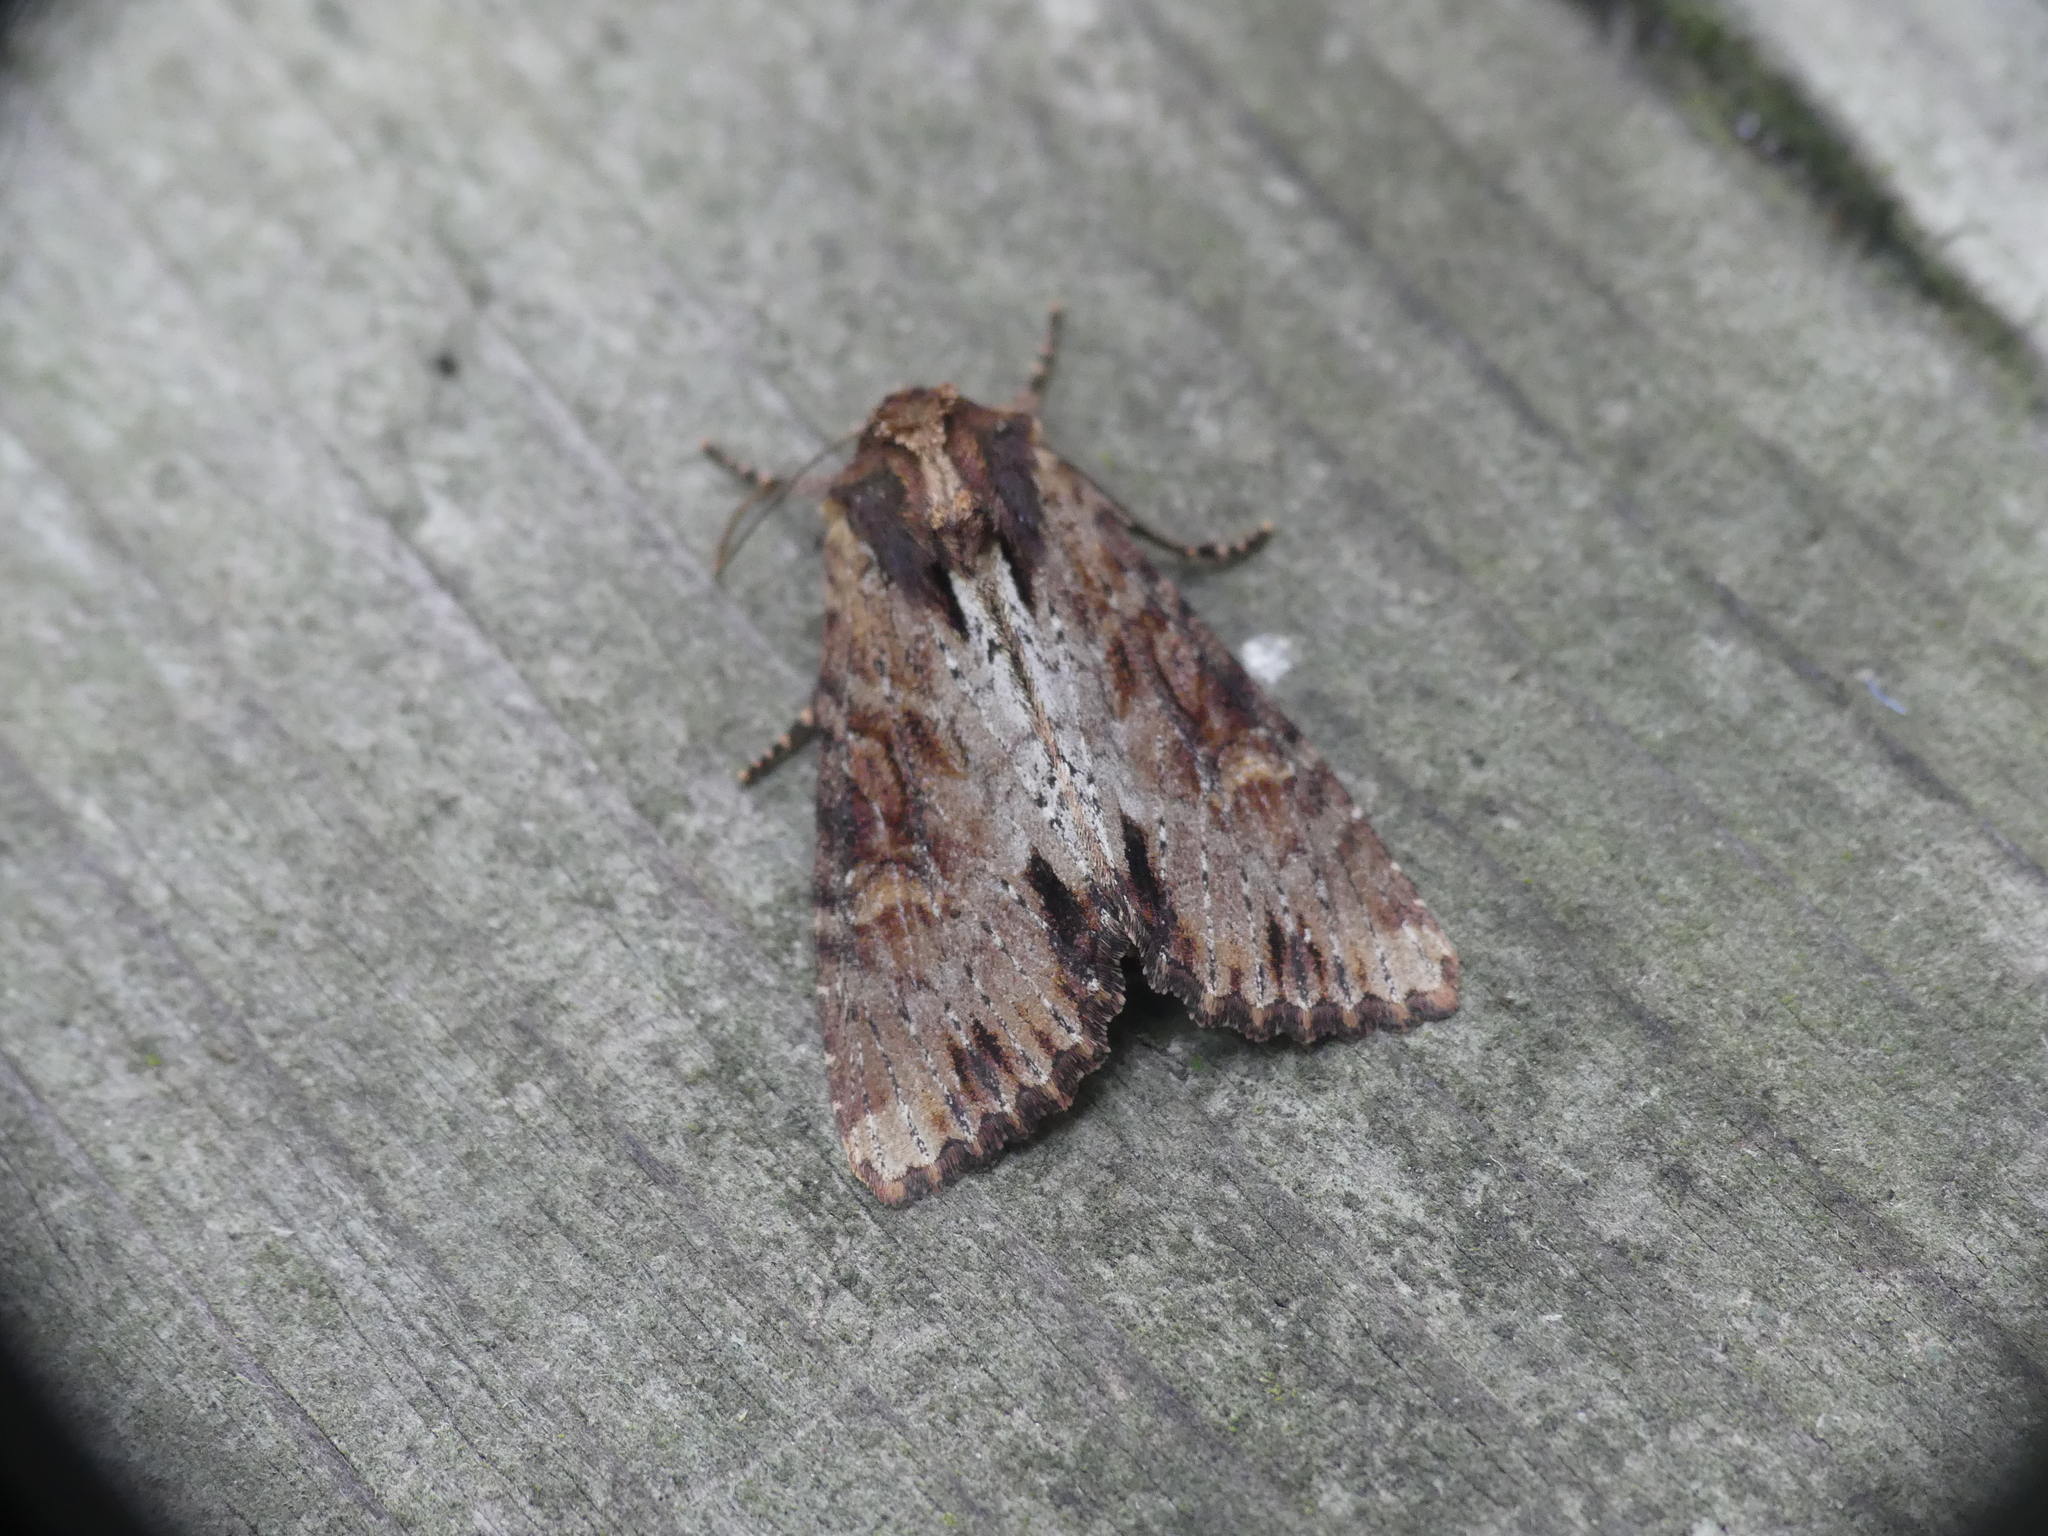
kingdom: Animalia
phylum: Arthropoda
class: Insecta
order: Lepidoptera
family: Noctuidae
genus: Apamea
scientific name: Apamea crenata
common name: Clouded-bordered brindle
